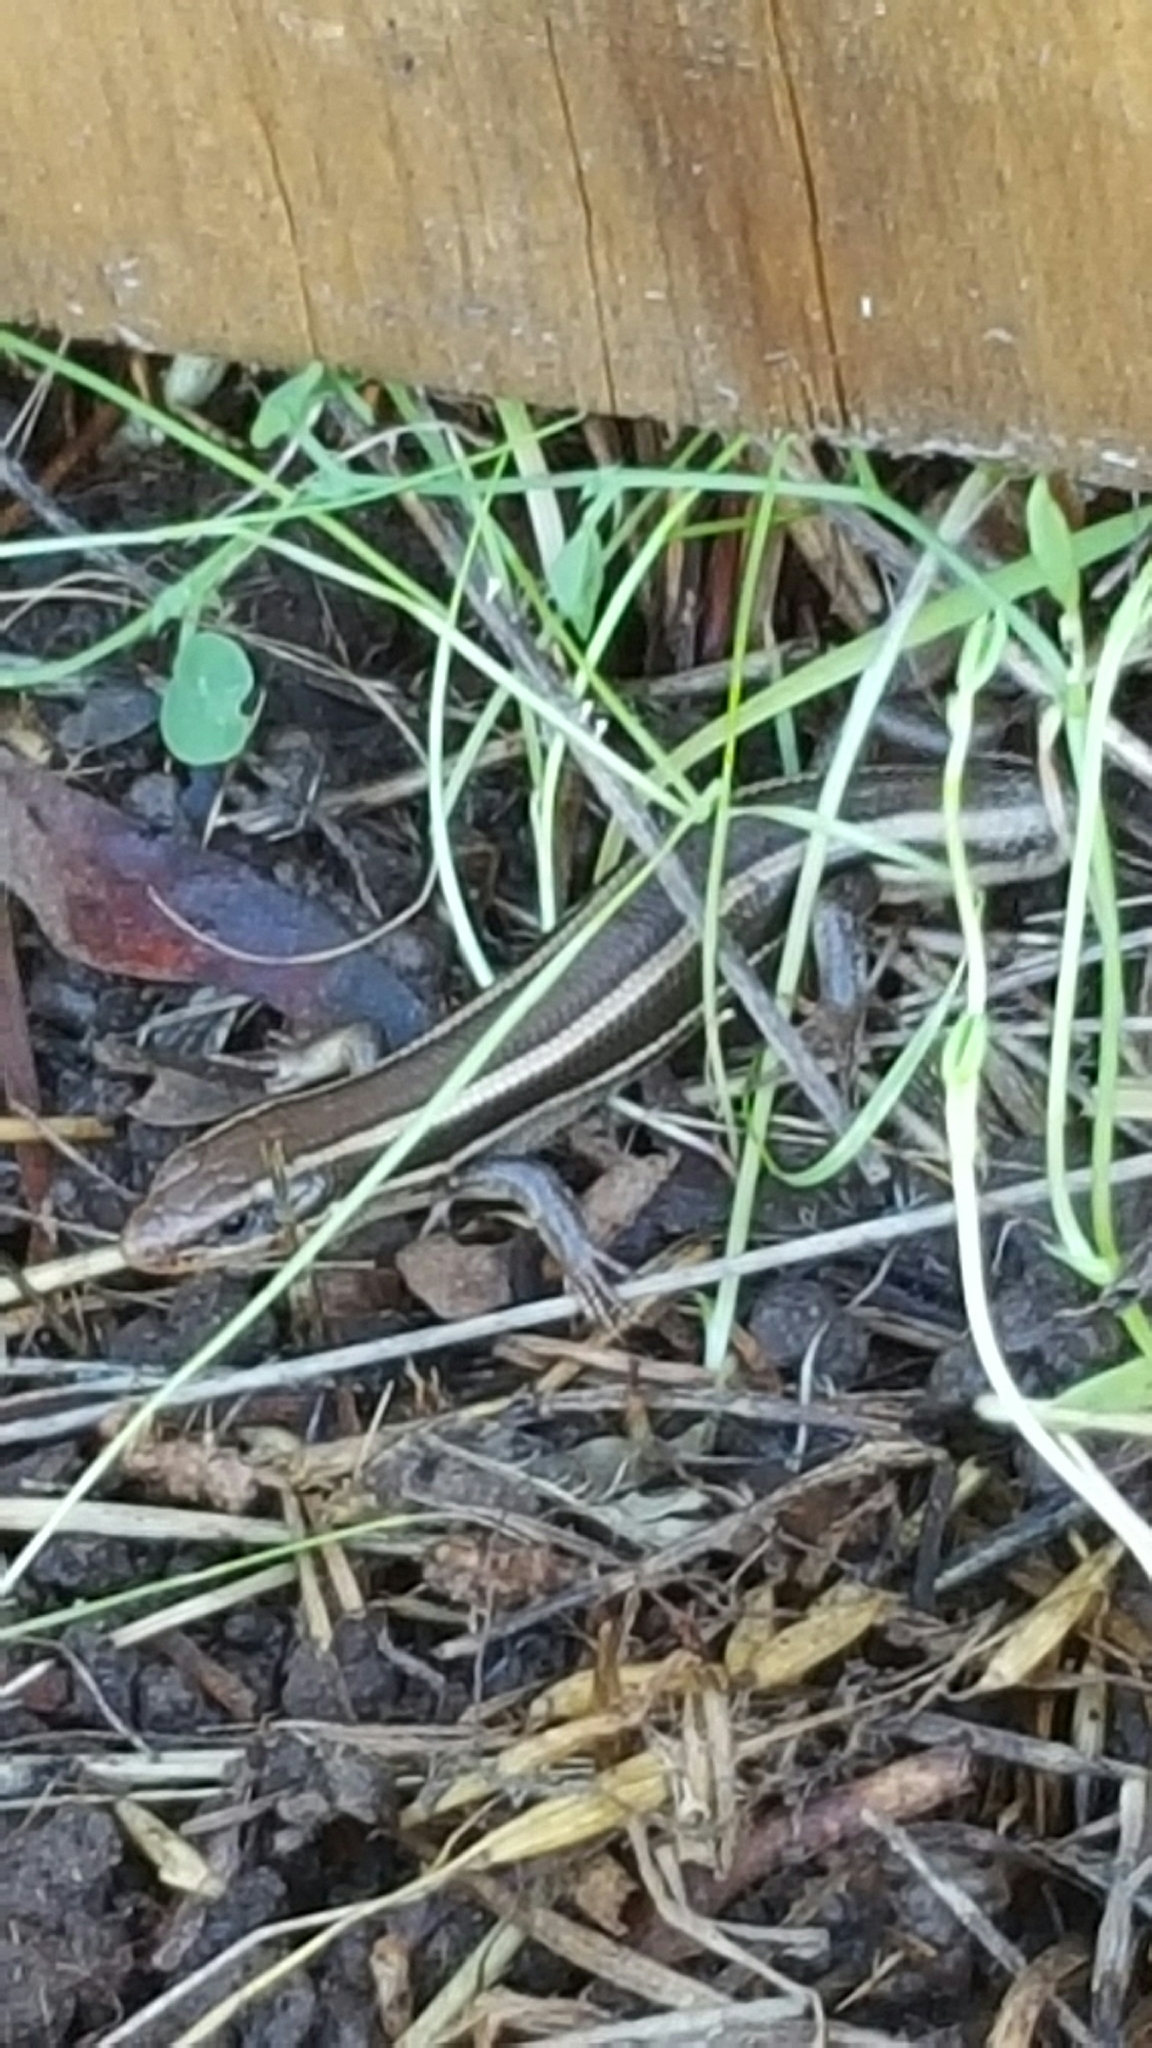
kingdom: Animalia
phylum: Chordata
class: Squamata
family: Scincidae
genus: Plestiodon
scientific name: Plestiodon skiltonianus
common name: Coronado island skink [interparietalis]
